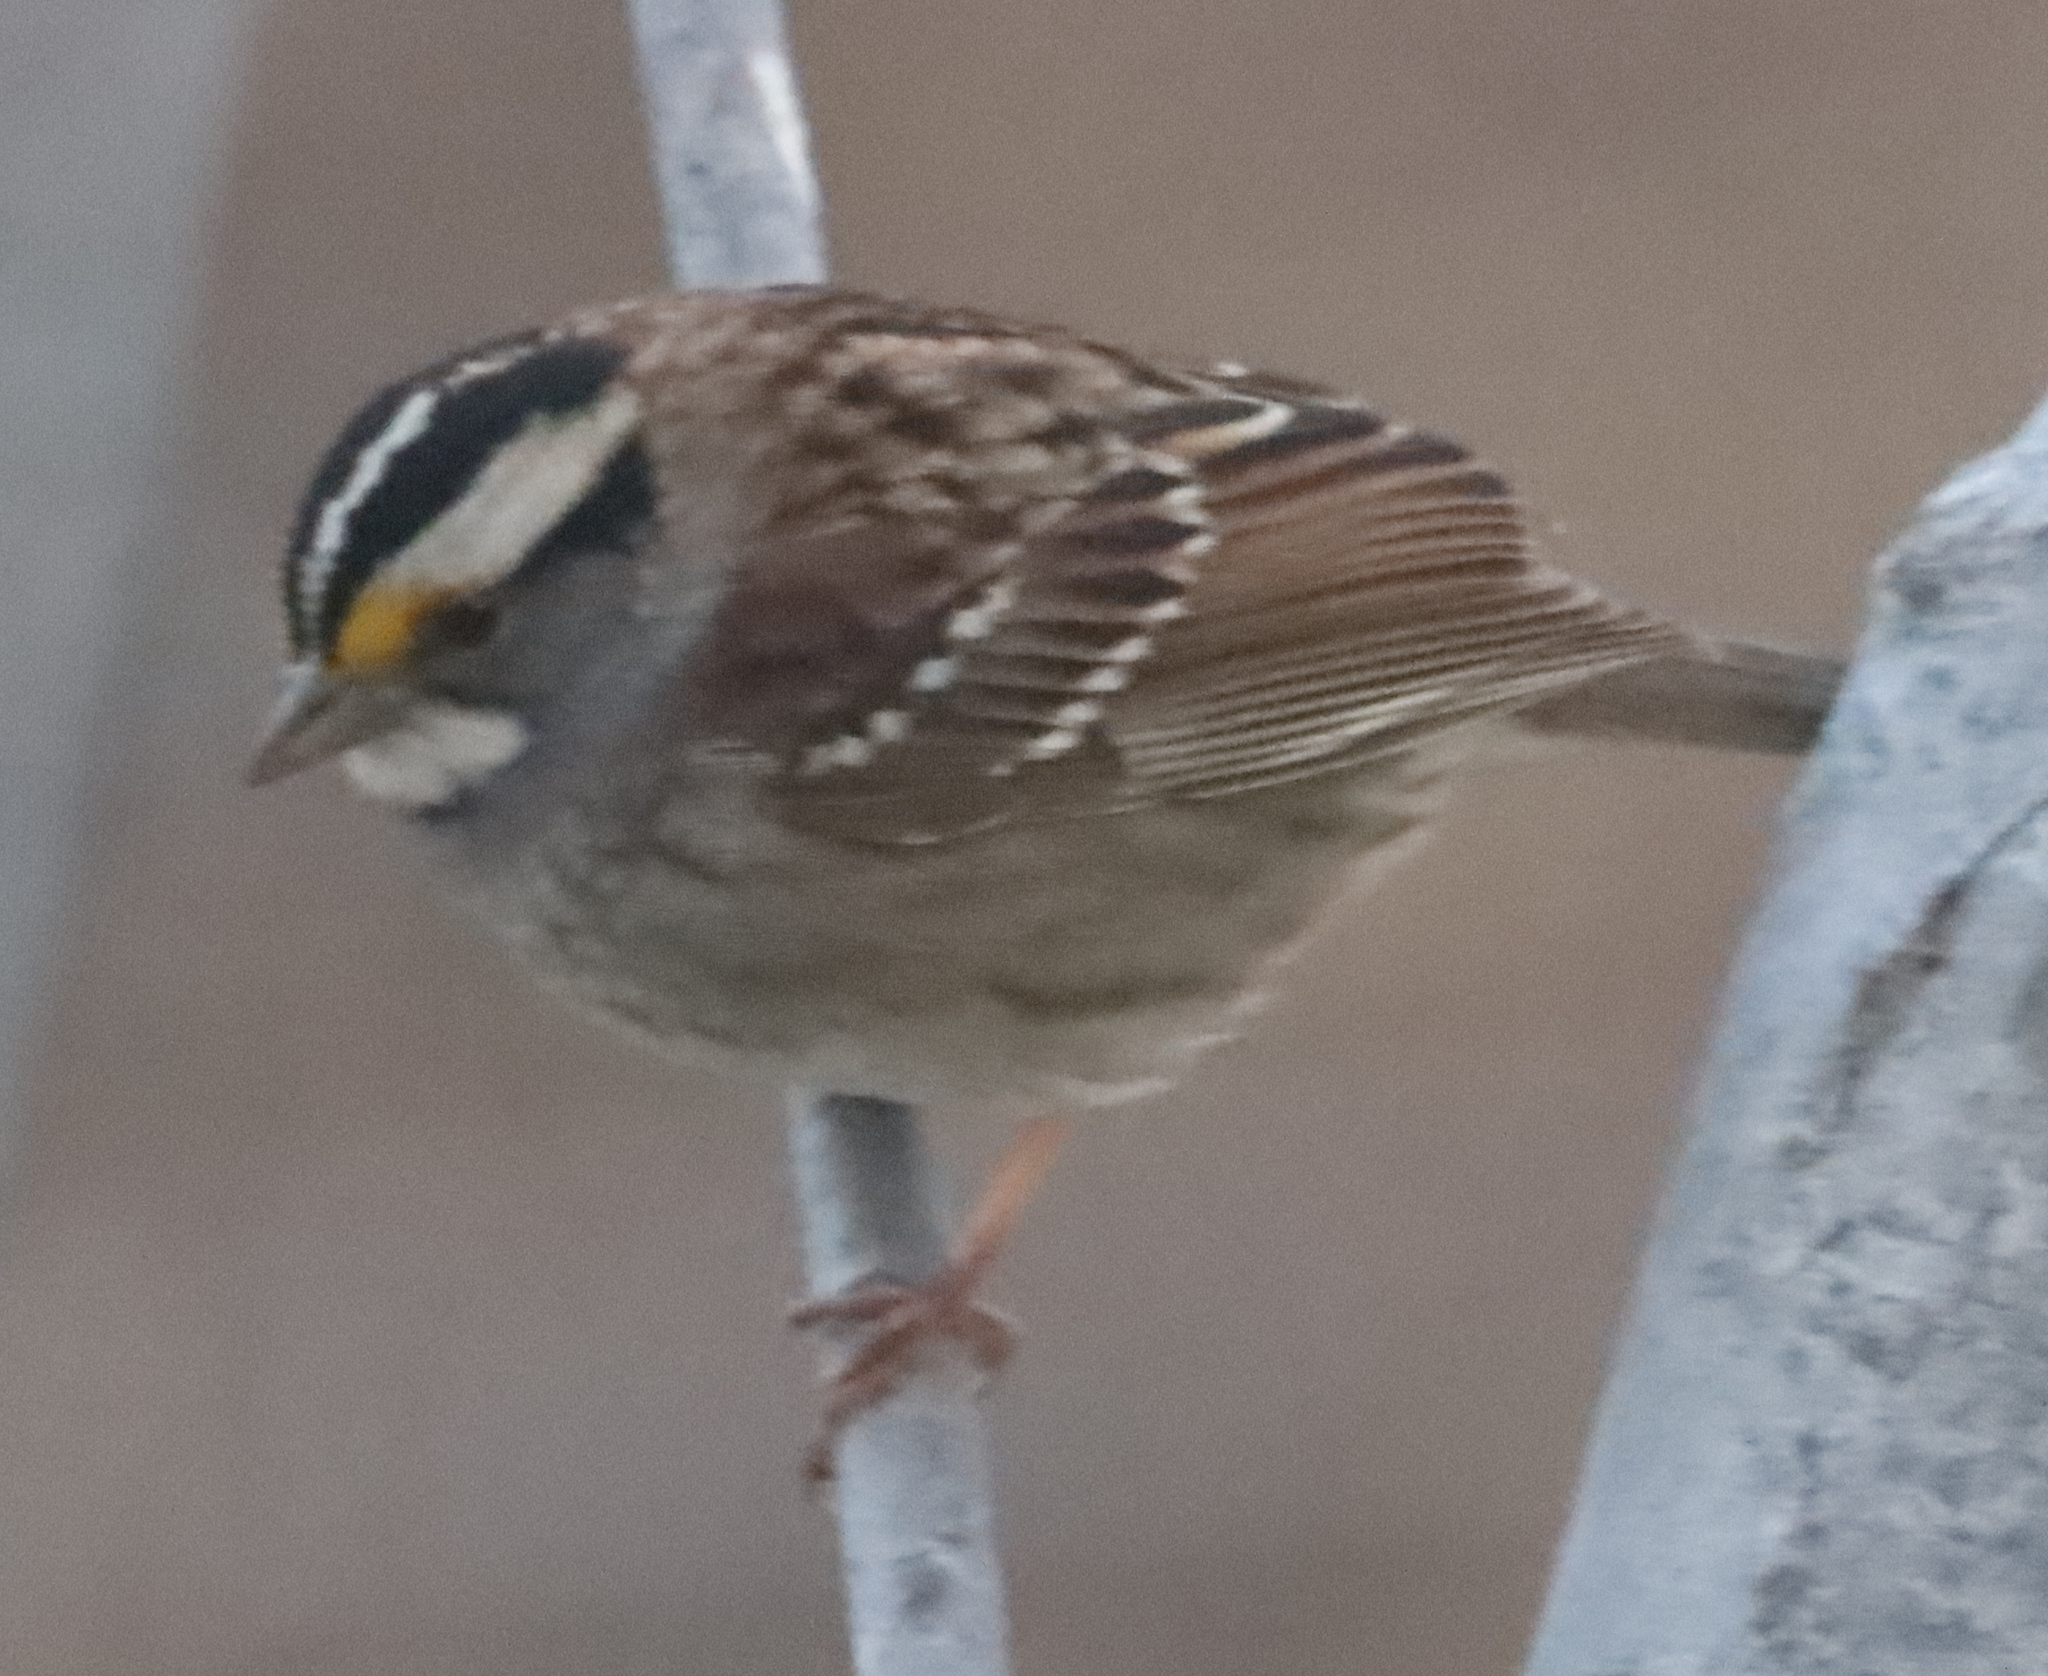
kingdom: Animalia
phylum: Chordata
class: Aves
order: Passeriformes
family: Passerellidae
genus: Zonotrichia
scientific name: Zonotrichia albicollis
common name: White-throated sparrow
